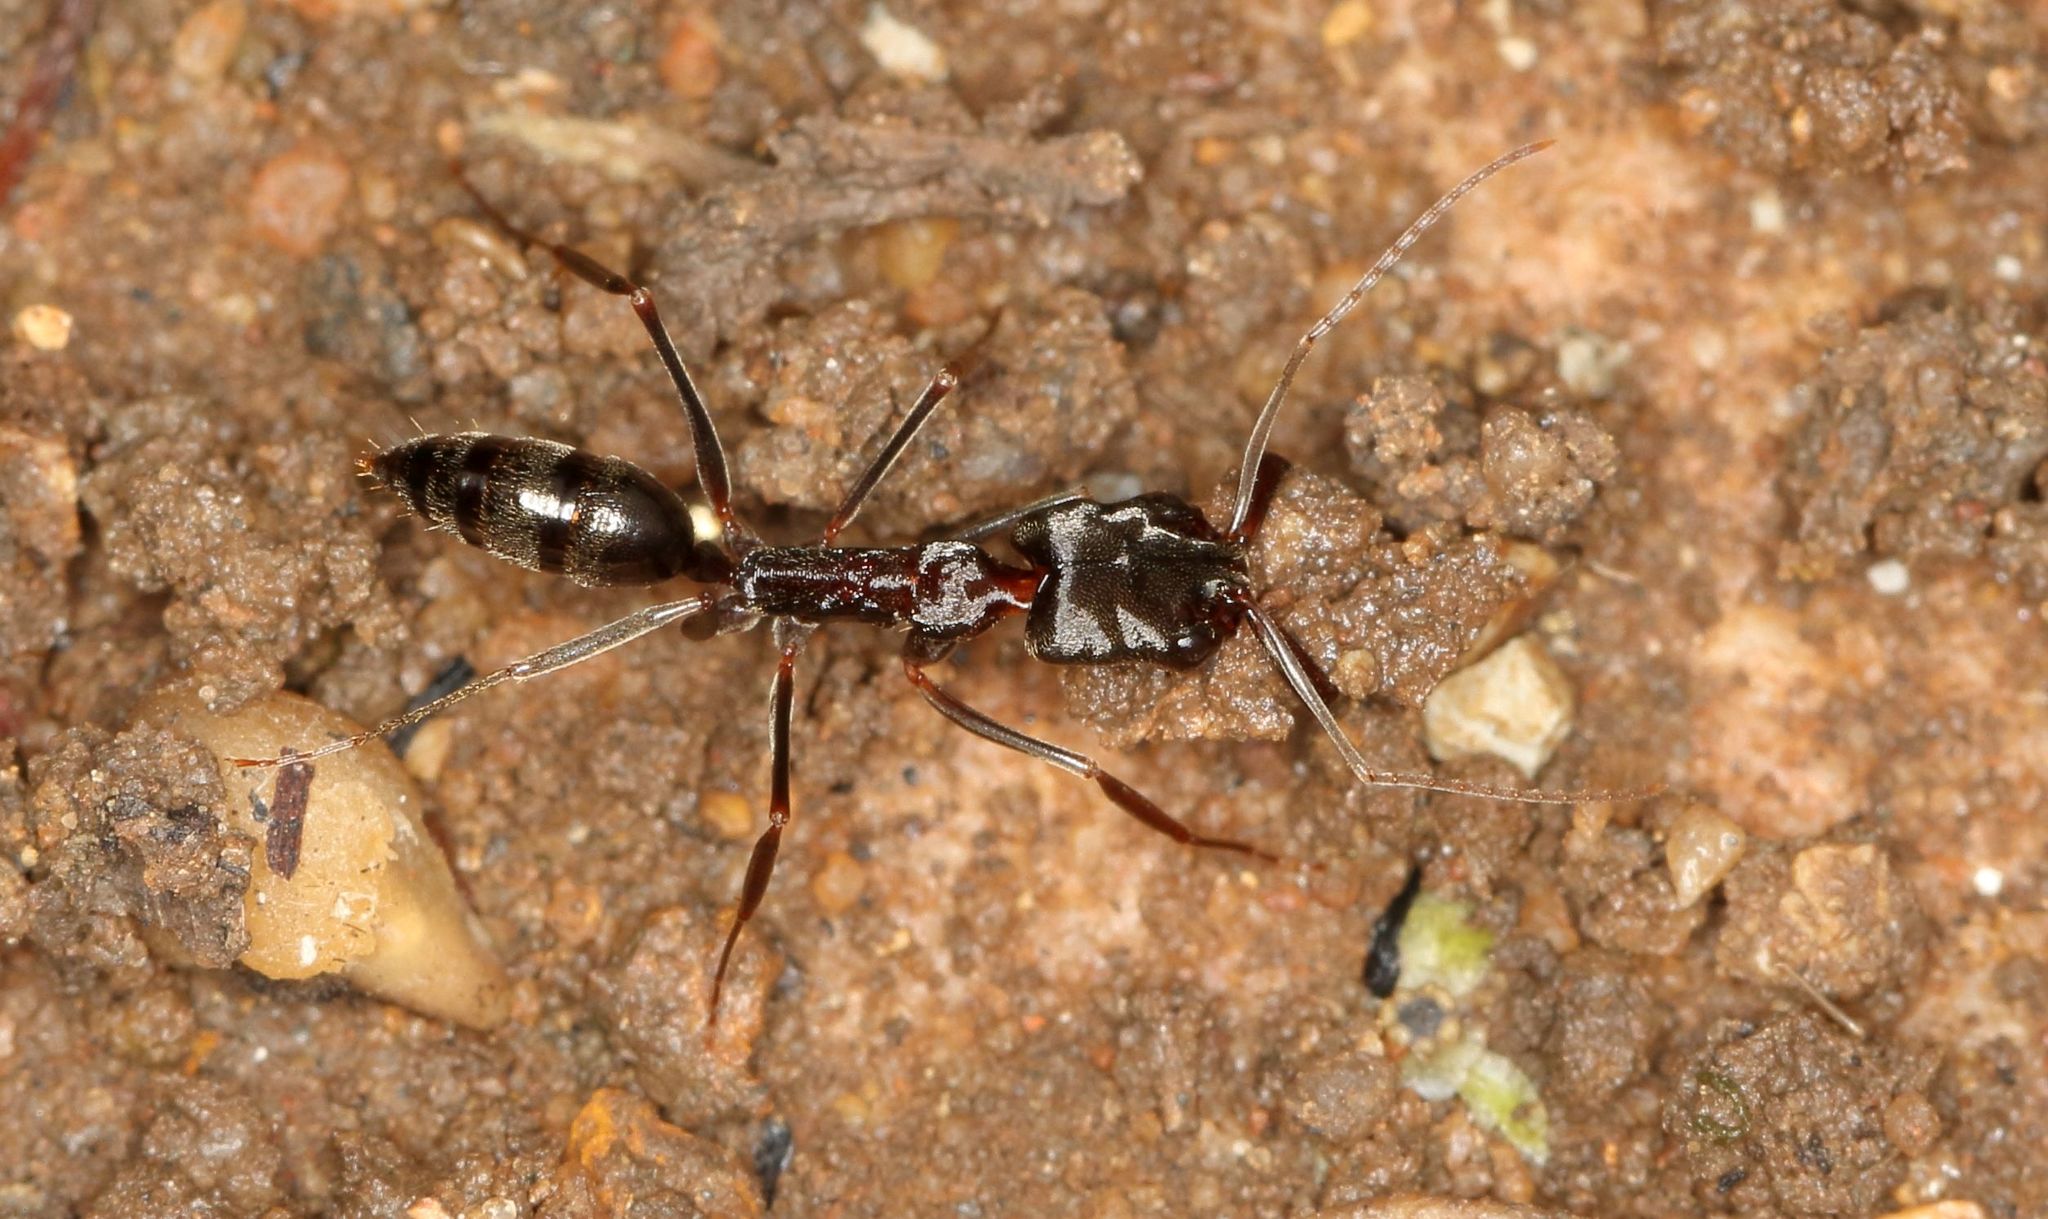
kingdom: Animalia
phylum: Arthropoda
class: Insecta
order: Hymenoptera
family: Formicidae
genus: Odontomachus
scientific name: Odontomachus troglodytes
